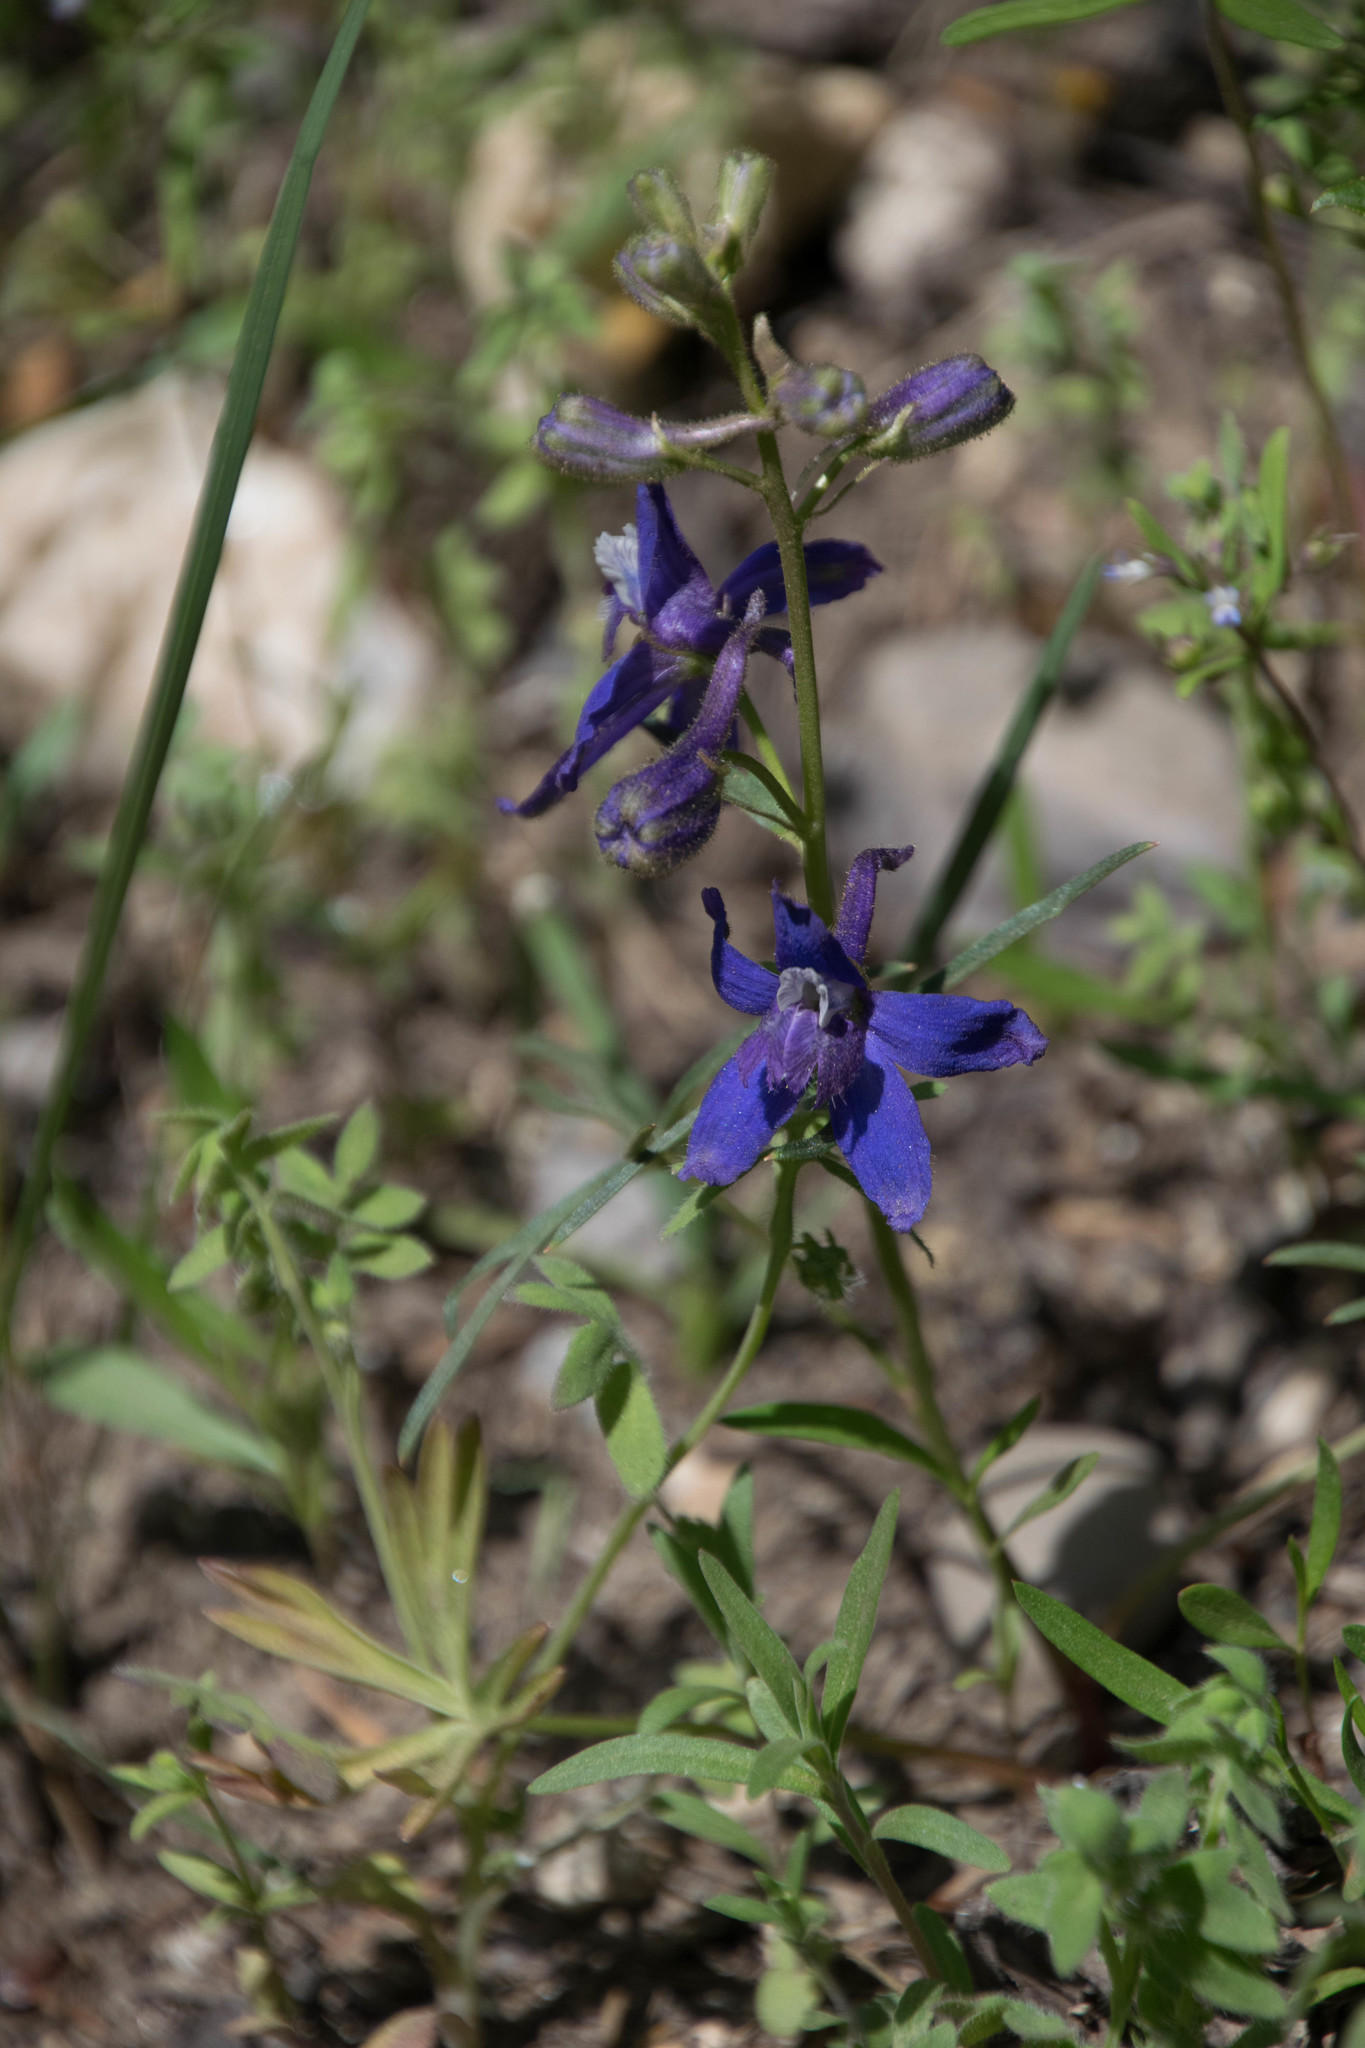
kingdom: Plantae
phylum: Tracheophyta
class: Magnoliopsida
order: Ranunculales
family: Ranunculaceae
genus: Delphinium
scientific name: Delphinium nuttallianum
